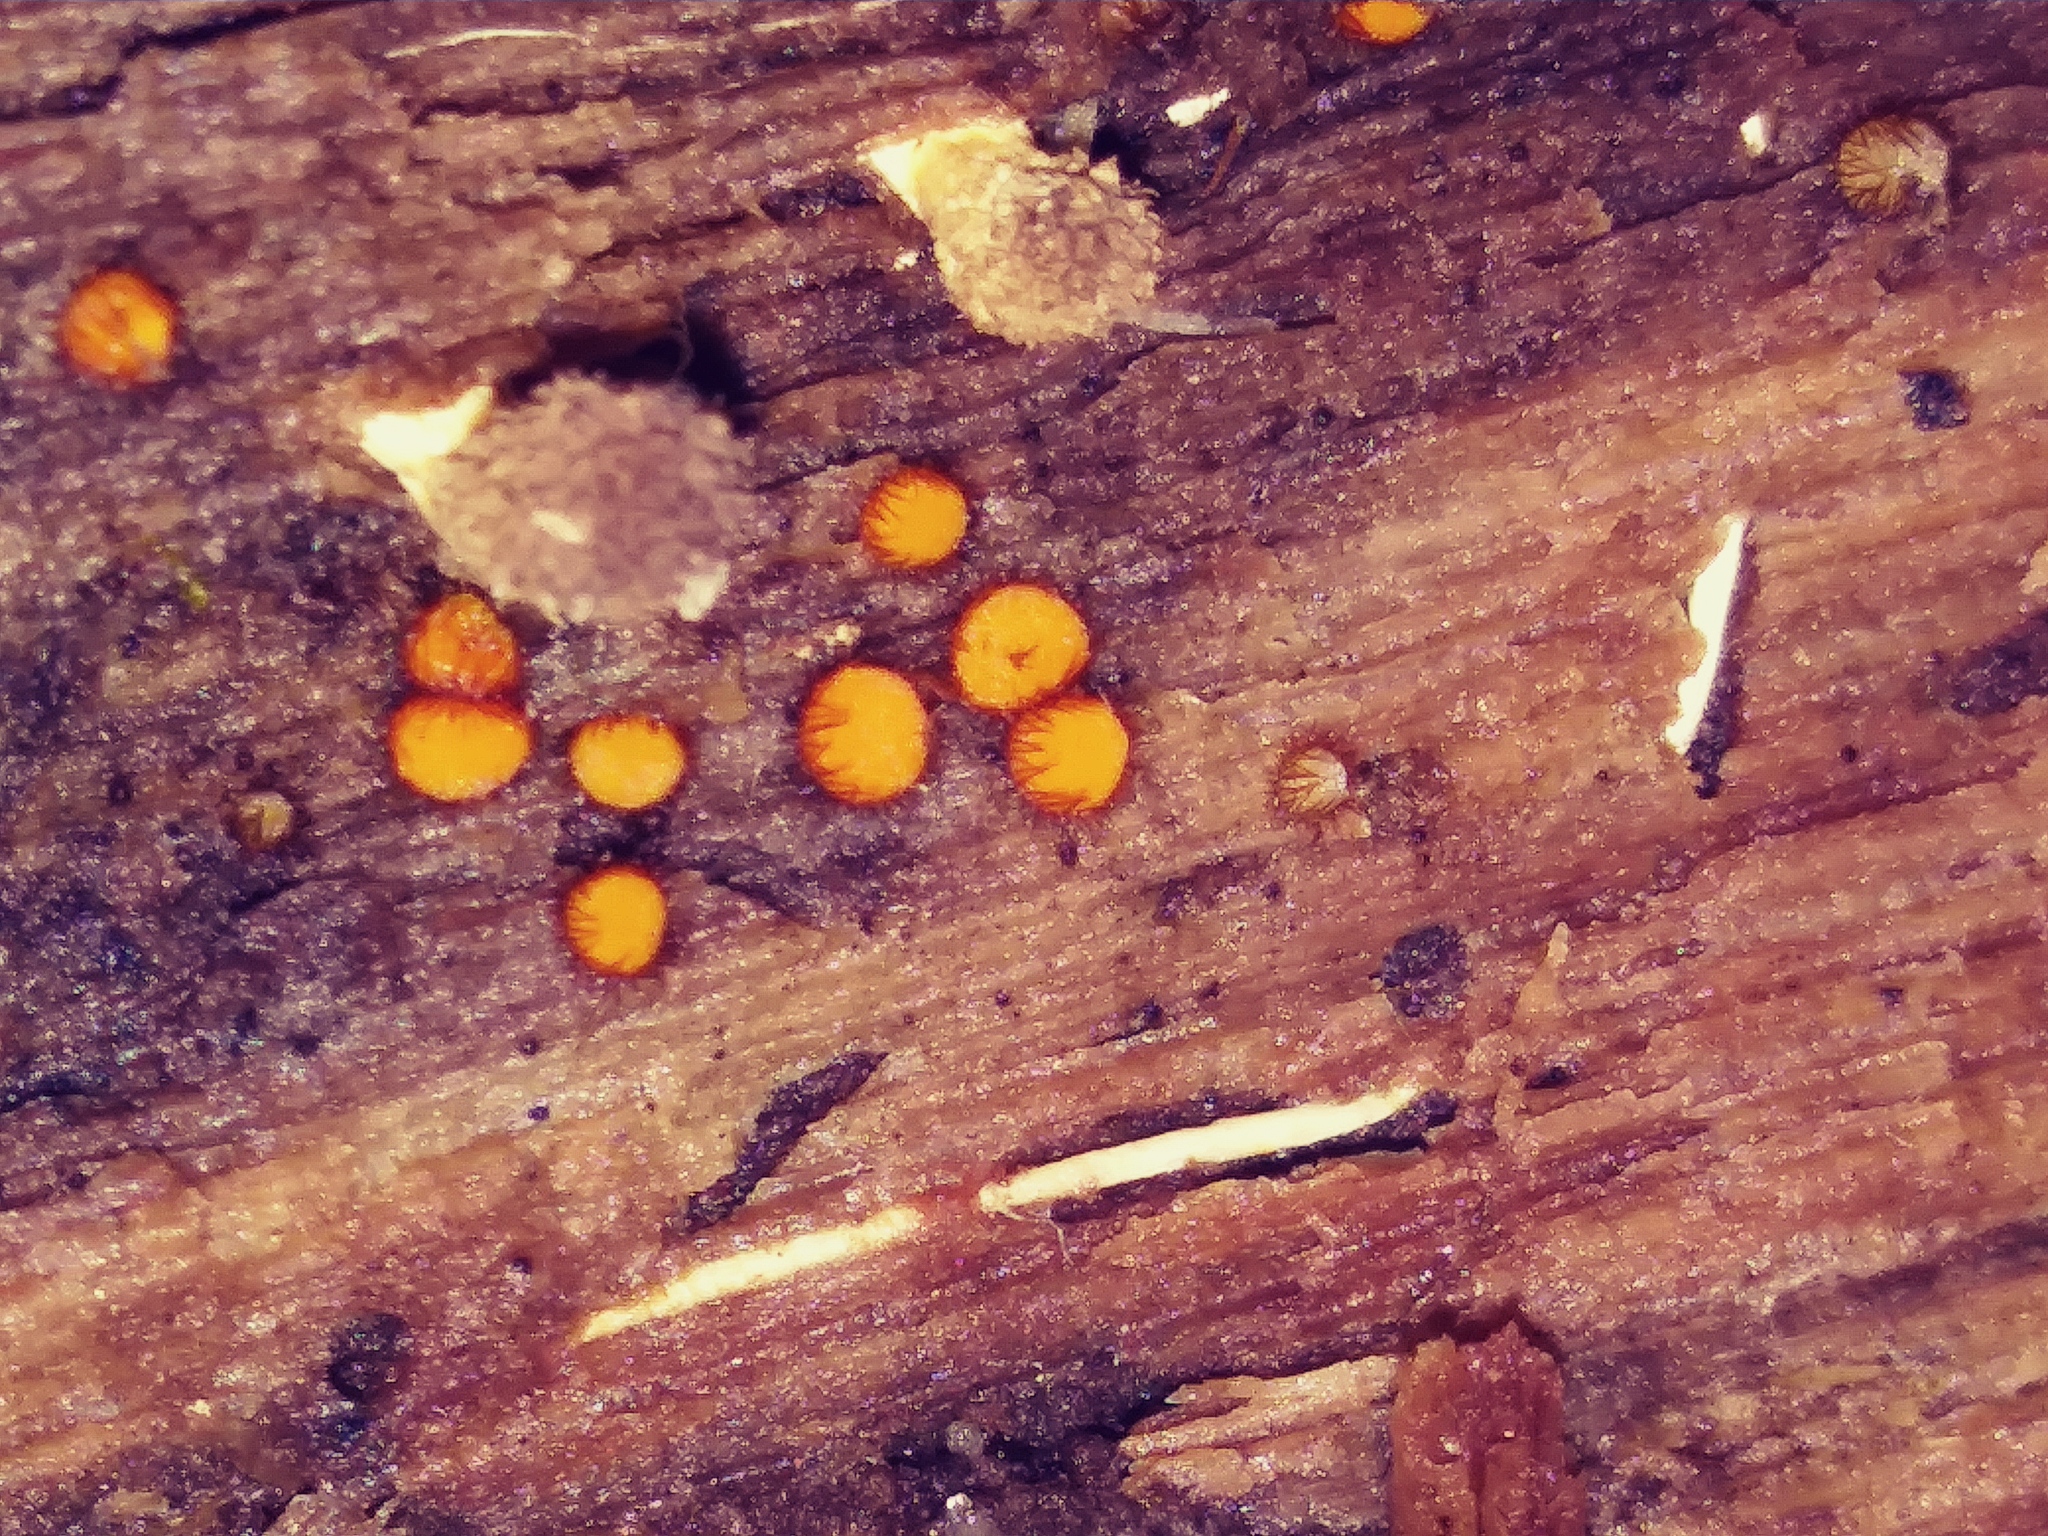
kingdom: Fungi
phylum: Ascomycota
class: Pezizomycetes
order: Pezizales
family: Pyronemataceae
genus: Scutellinia
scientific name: Scutellinia setosa
